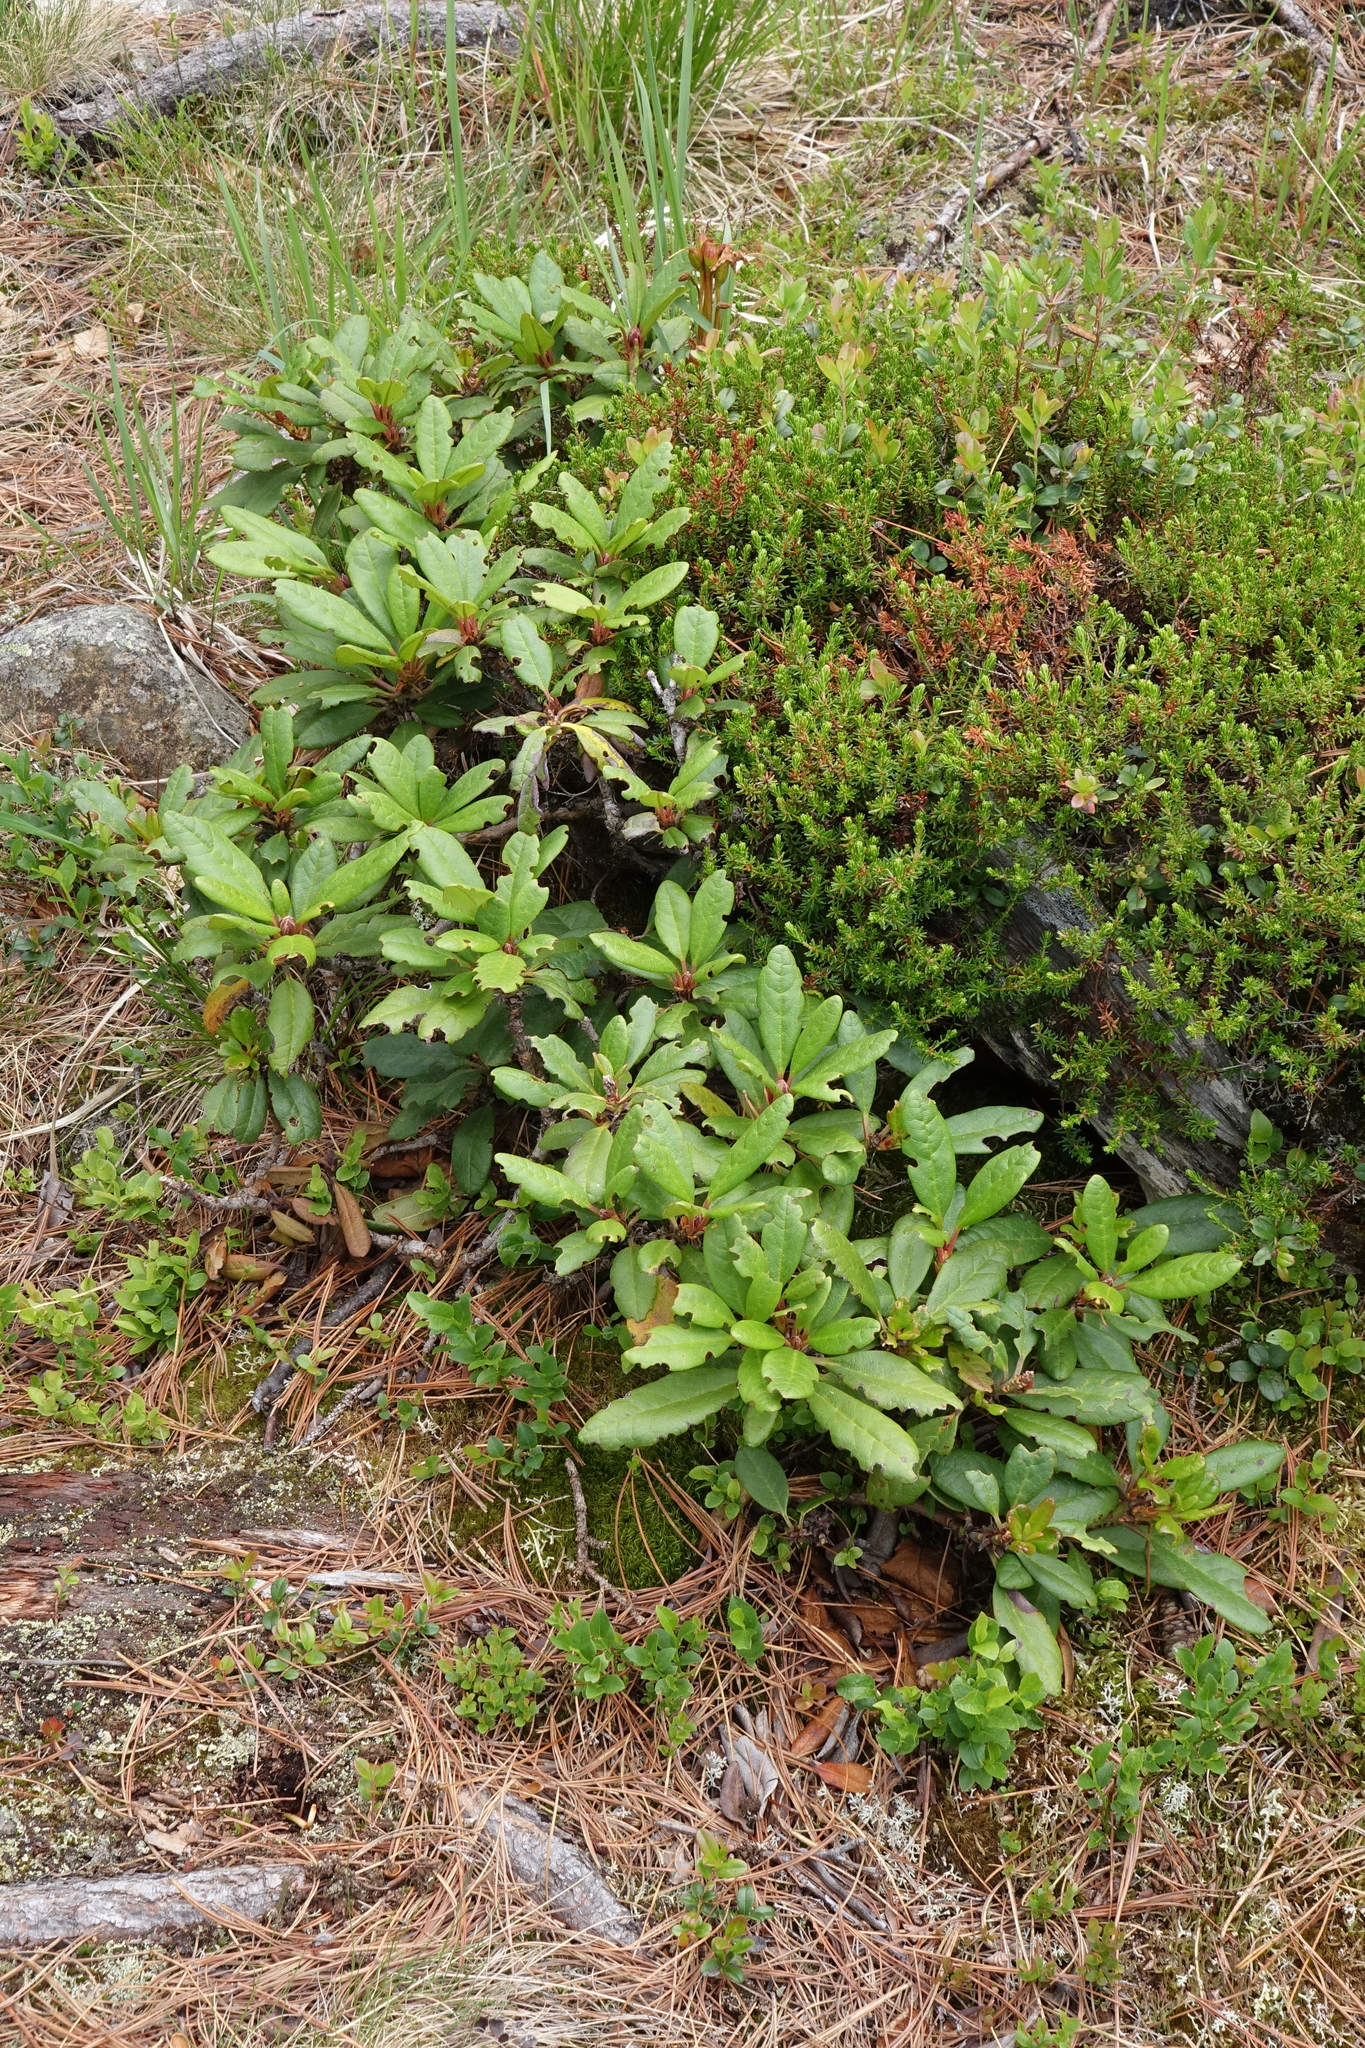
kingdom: Plantae
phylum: Tracheophyta
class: Magnoliopsida
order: Ericales
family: Ericaceae
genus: Rhododendron
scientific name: Rhododendron aureum
